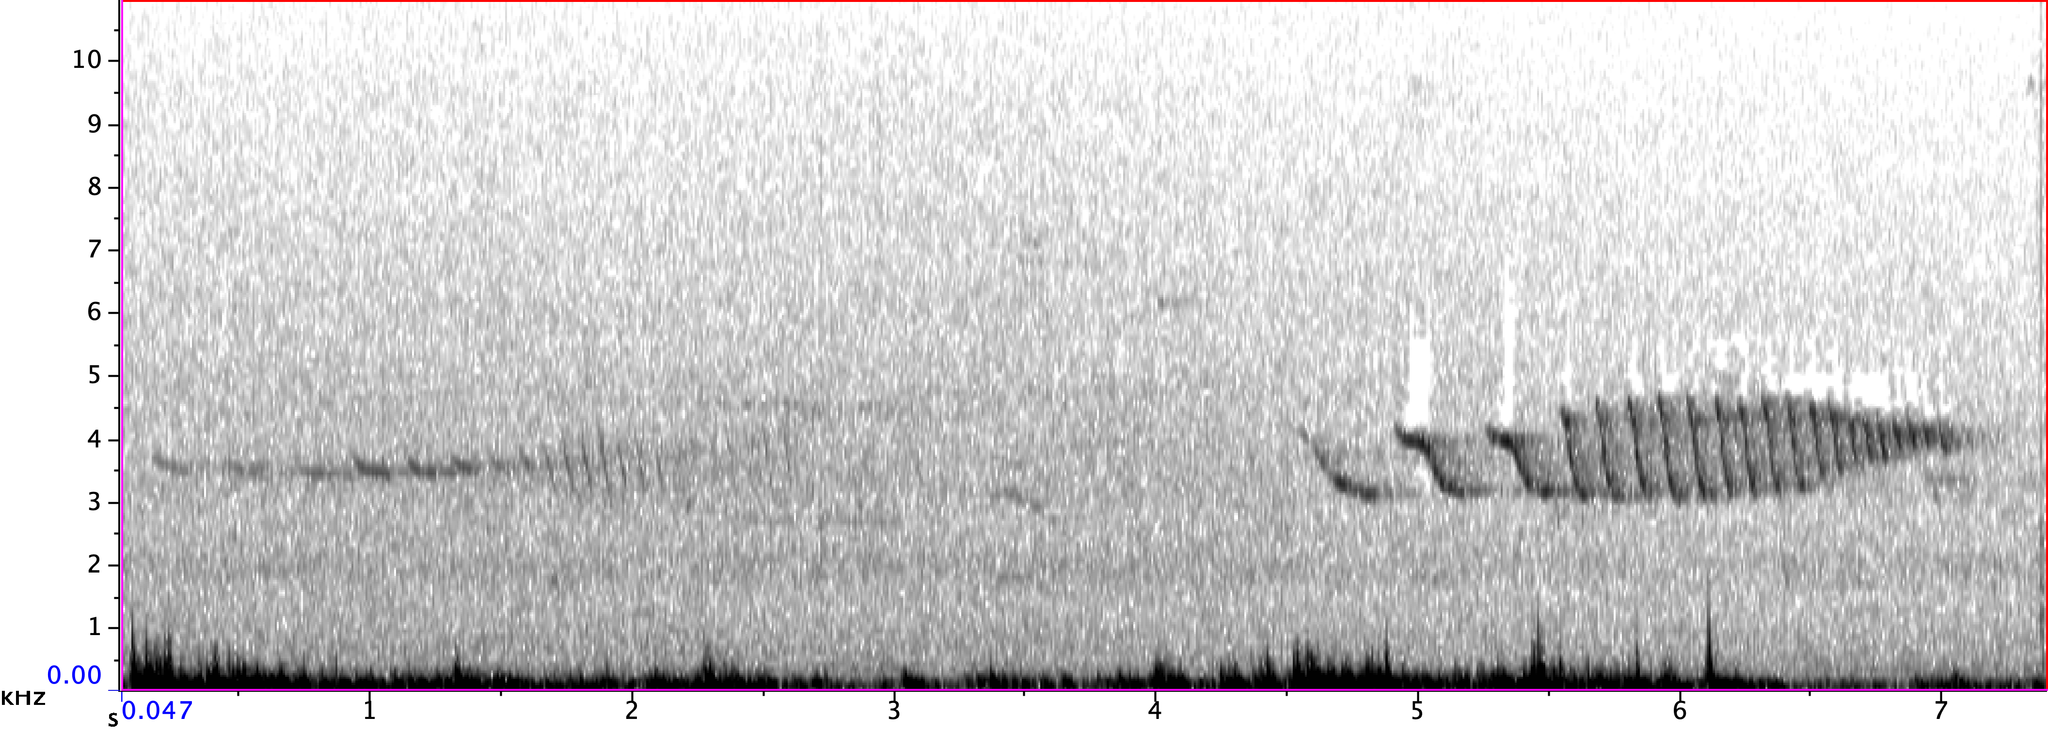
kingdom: Animalia
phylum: Chordata
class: Aves
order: Passeriformes
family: Passerellidae
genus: Spizella
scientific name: Spizella pusilla
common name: Field sparrow
